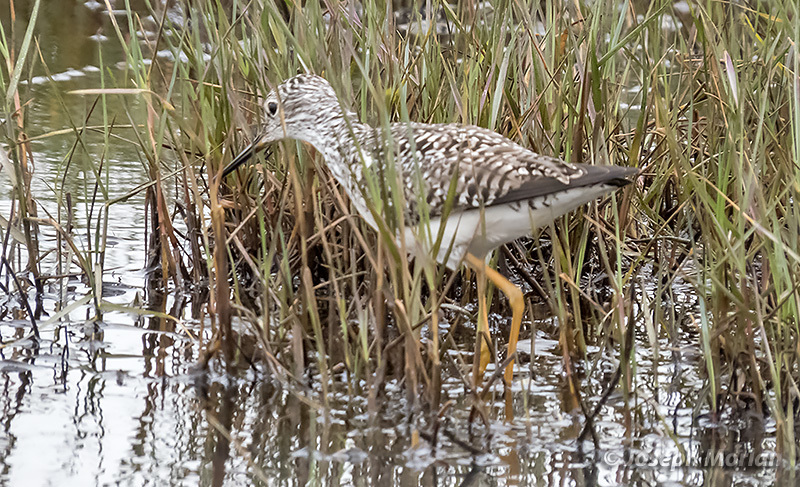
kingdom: Animalia
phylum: Chordata
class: Aves
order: Charadriiformes
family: Scolopacidae
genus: Tringa
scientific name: Tringa flavipes
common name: Lesser yellowlegs
